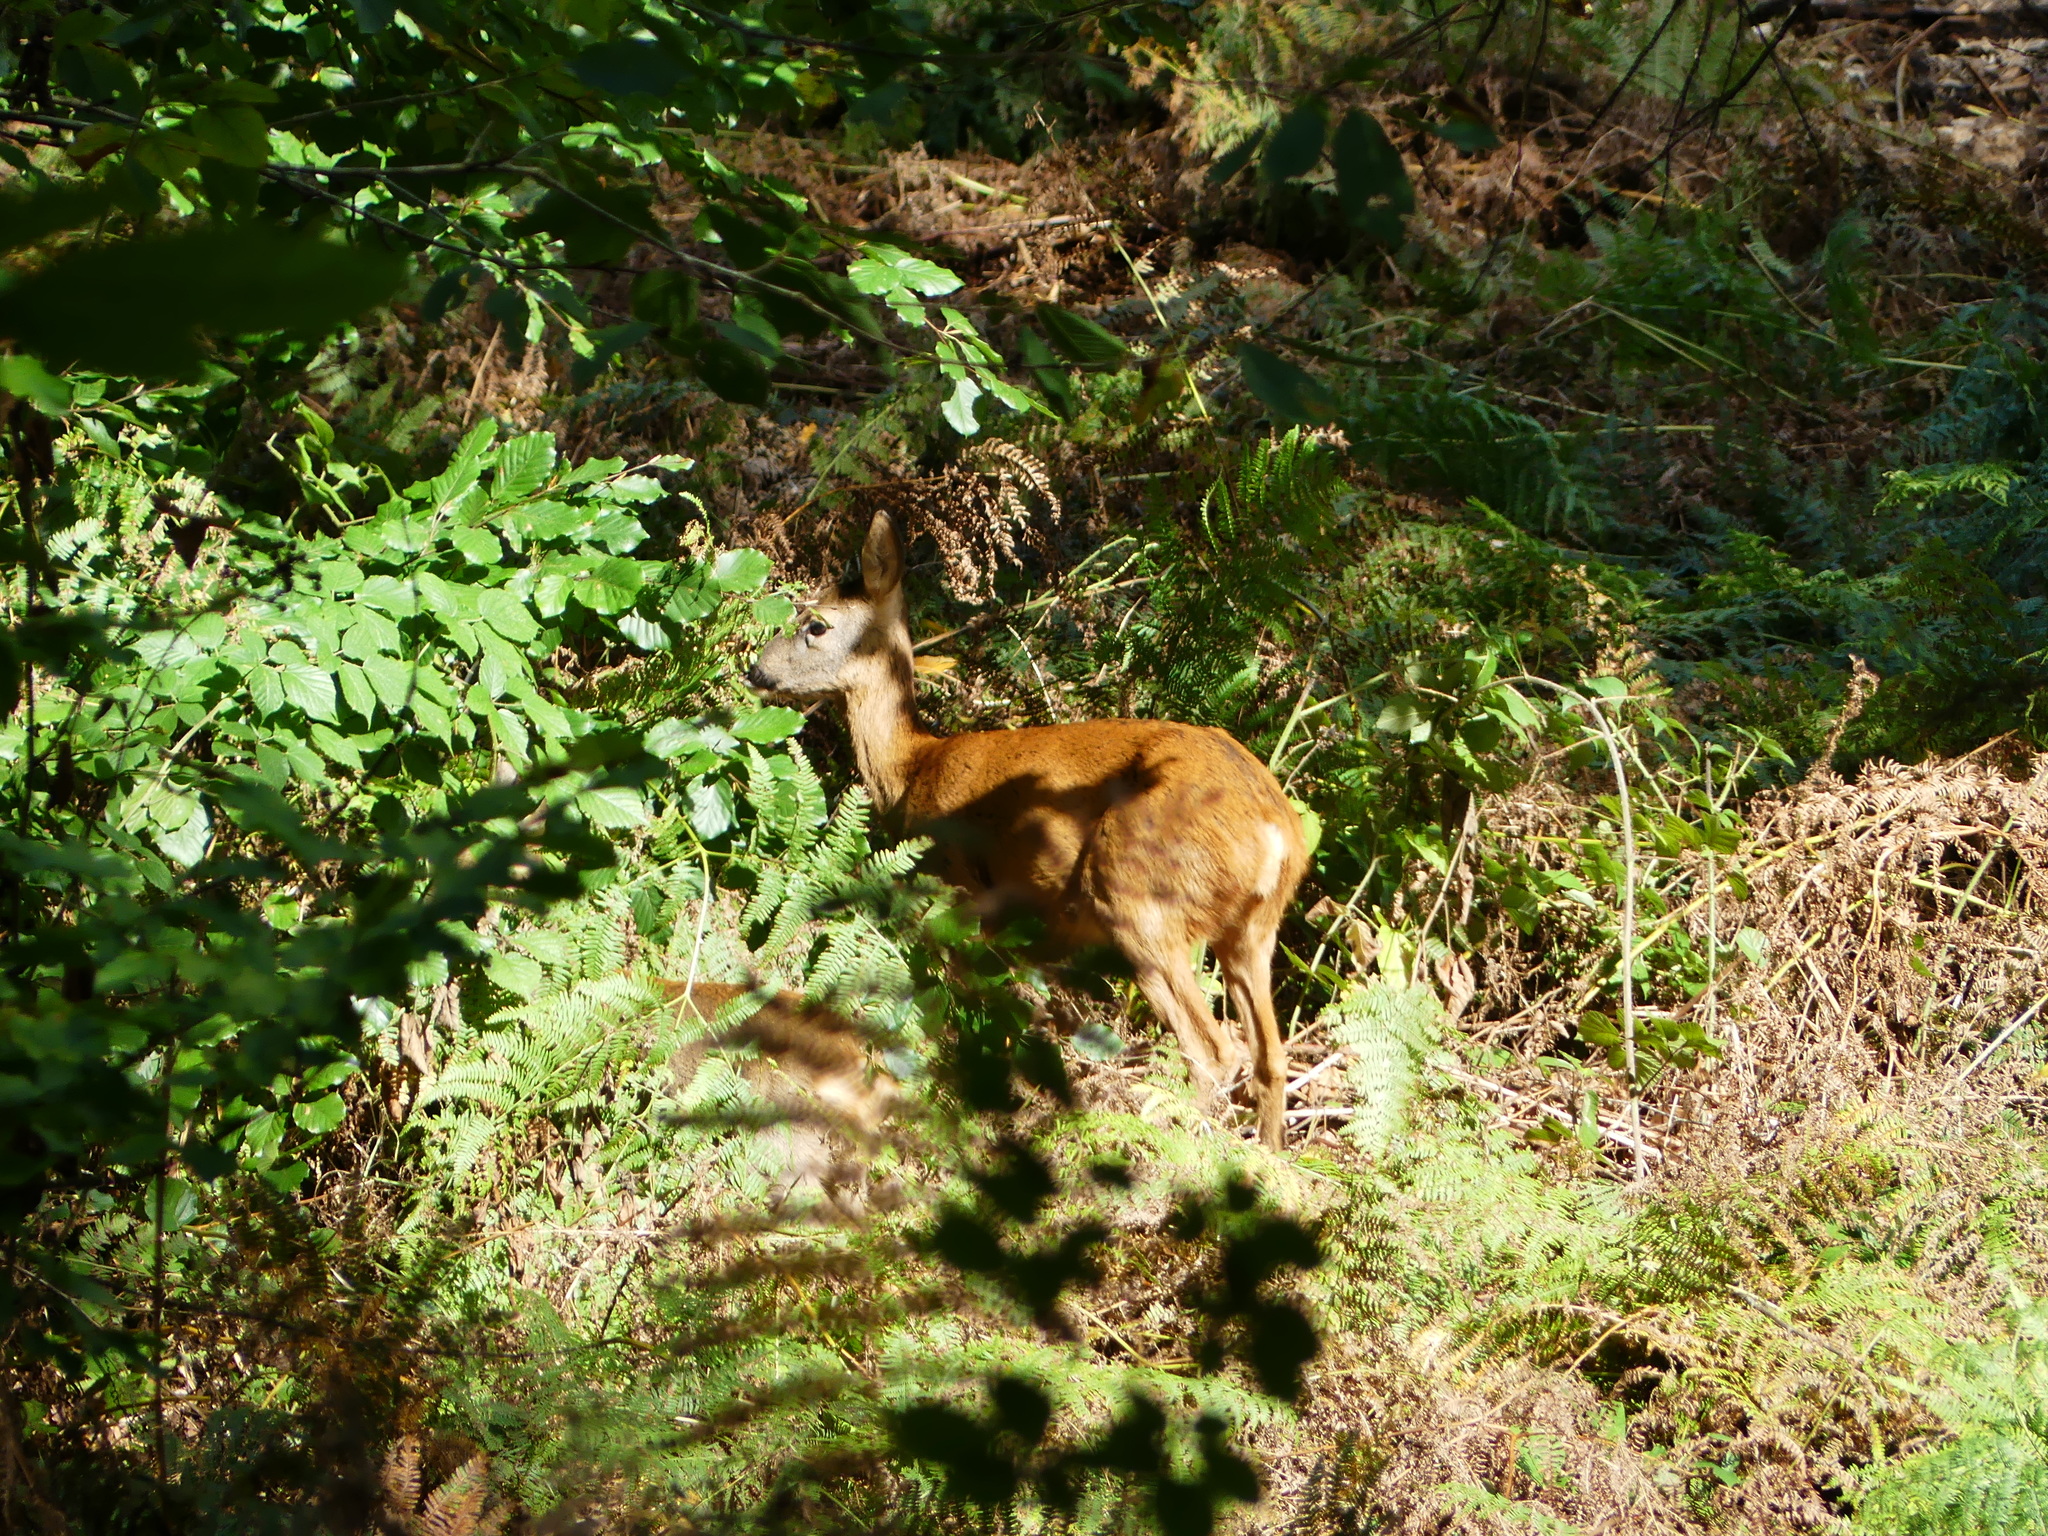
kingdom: Animalia
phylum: Chordata
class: Mammalia
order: Artiodactyla
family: Cervidae
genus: Capreolus
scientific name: Capreolus capreolus
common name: Western roe deer
